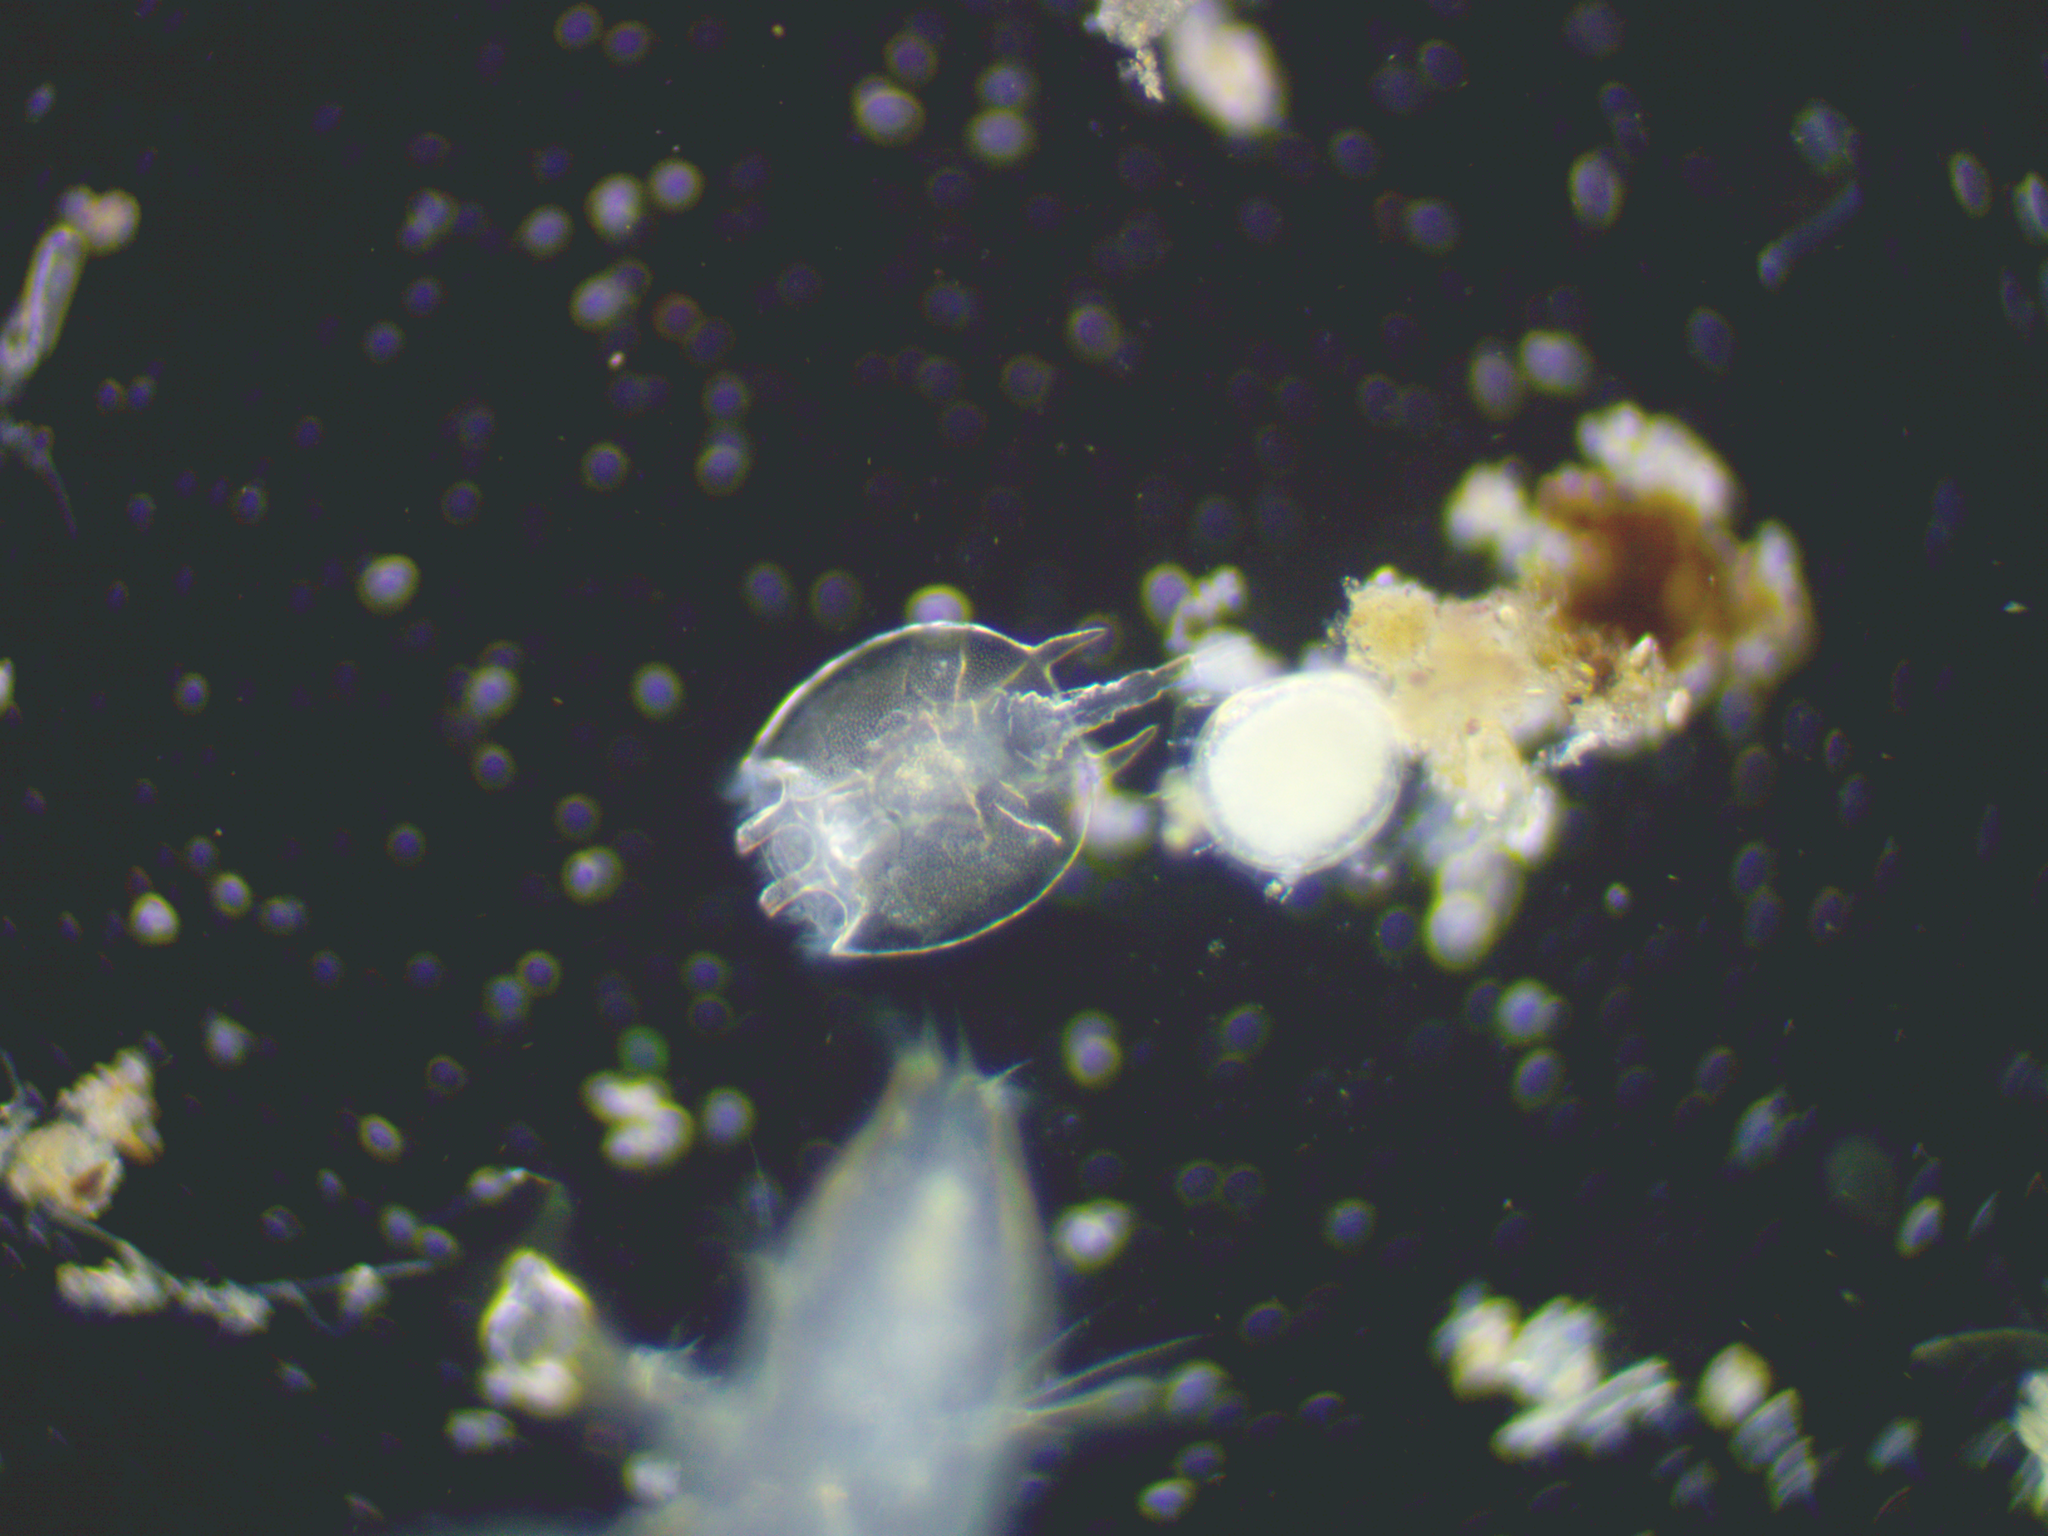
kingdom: Animalia
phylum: Rotifera
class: Eurotatoria
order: Ploima
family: Brachionidae
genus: Platyias
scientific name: Platyias quadricornis
